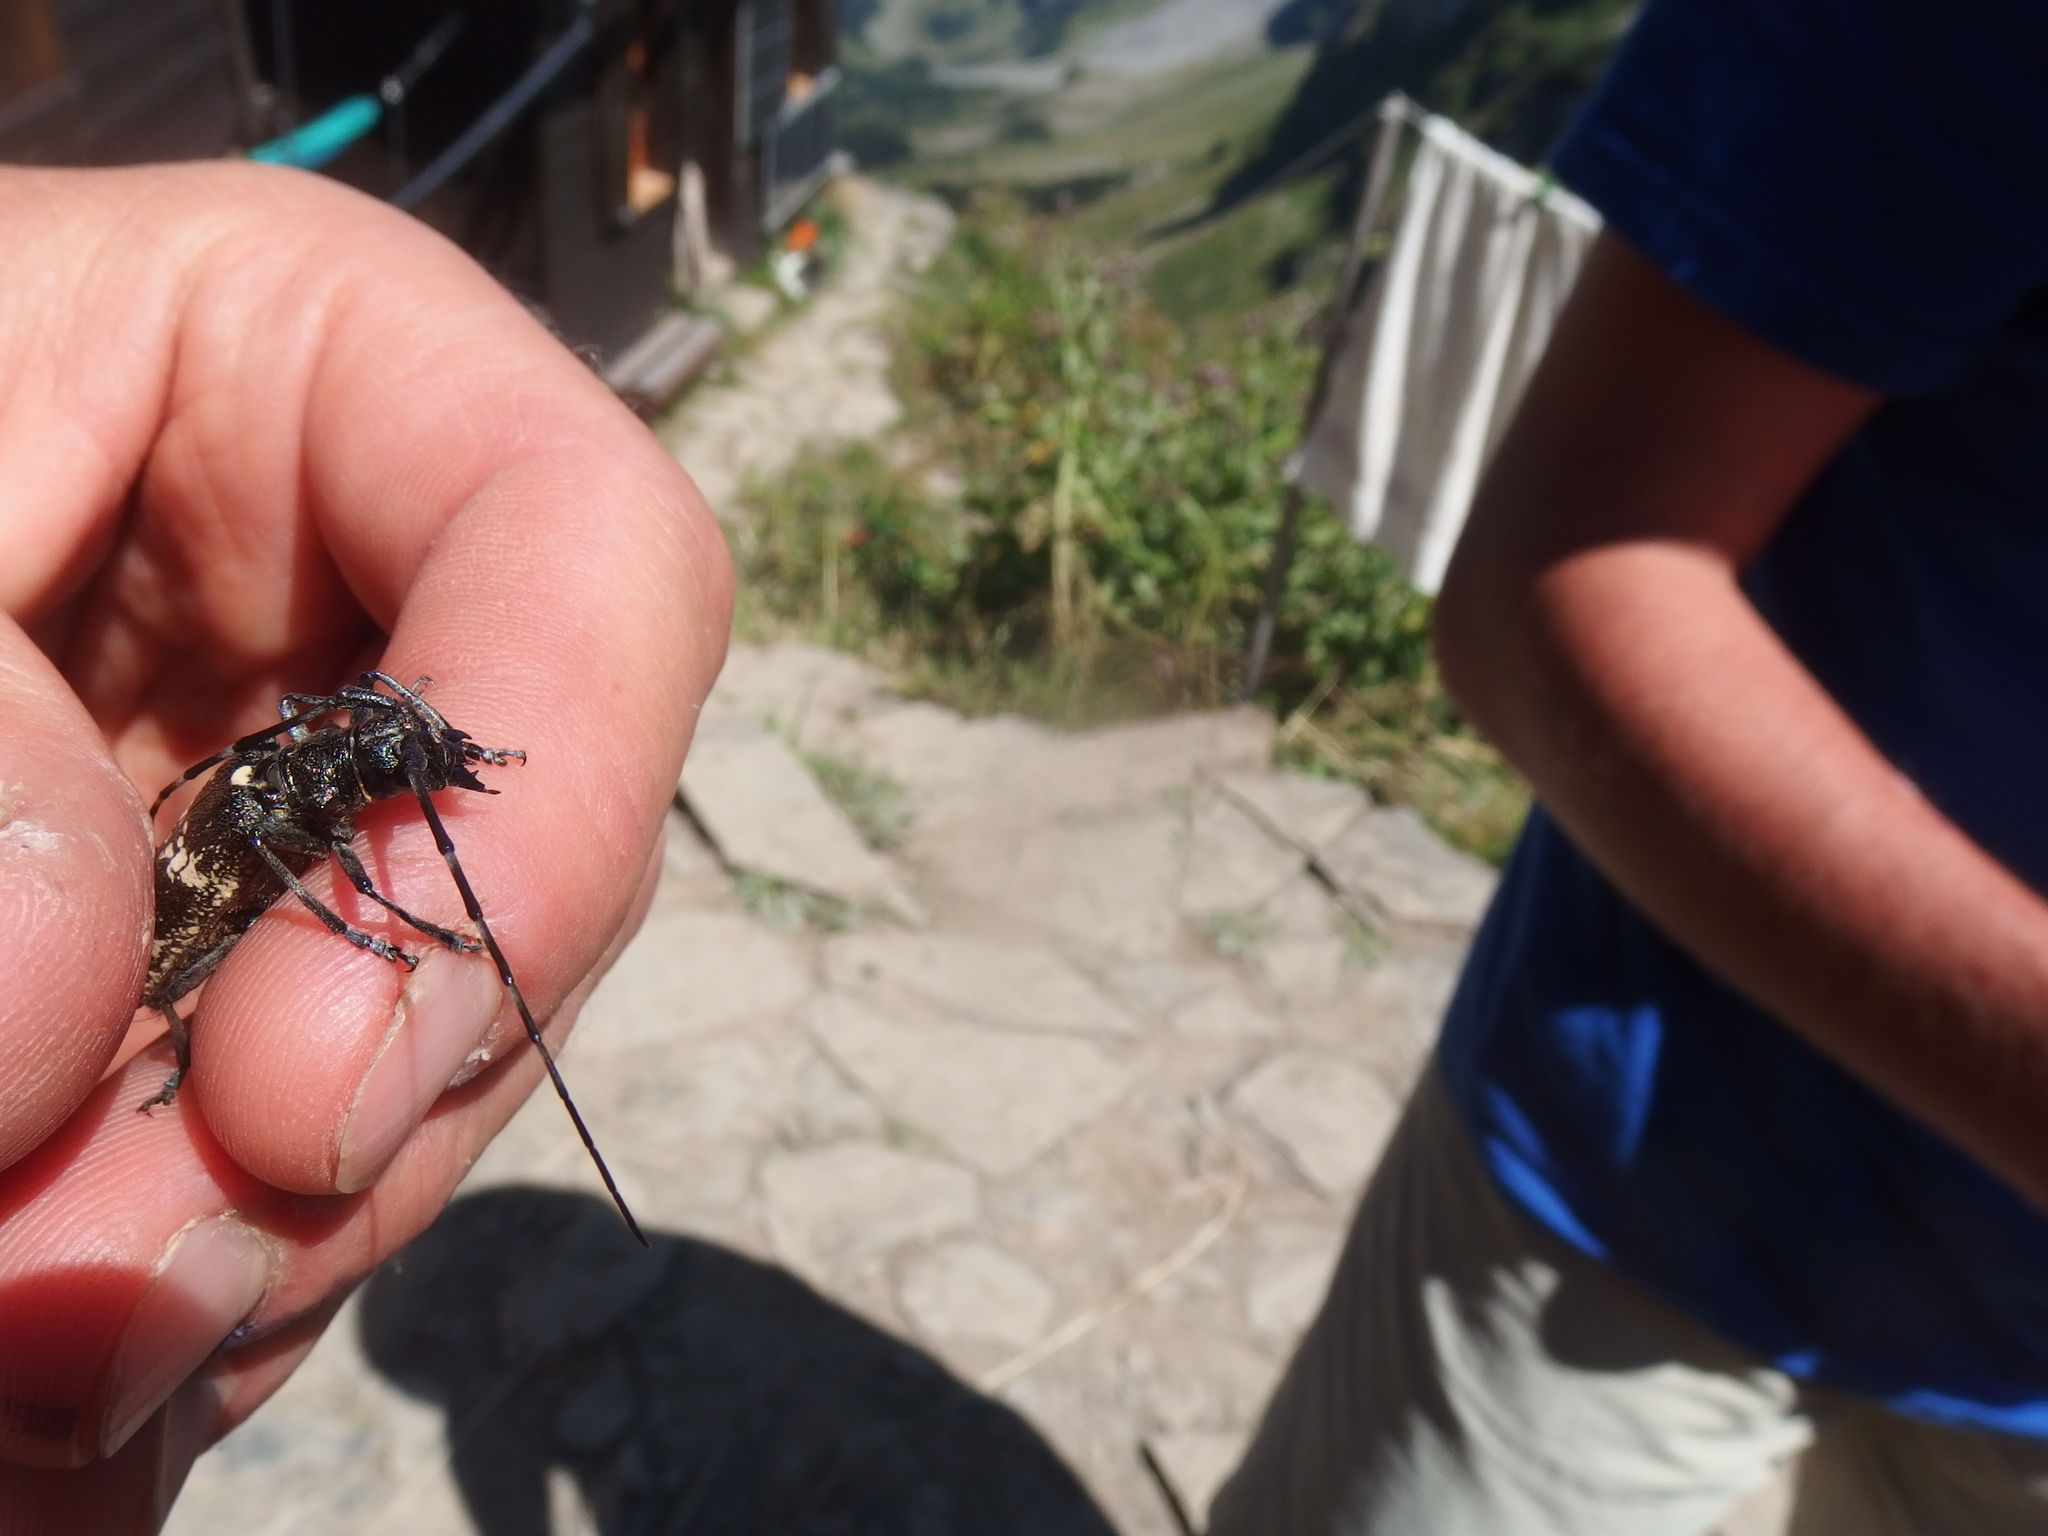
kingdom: Animalia
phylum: Arthropoda
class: Insecta
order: Coleoptera
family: Cerambycidae
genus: Monochamus
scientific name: Monochamus sartor
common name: Pine sawyer
